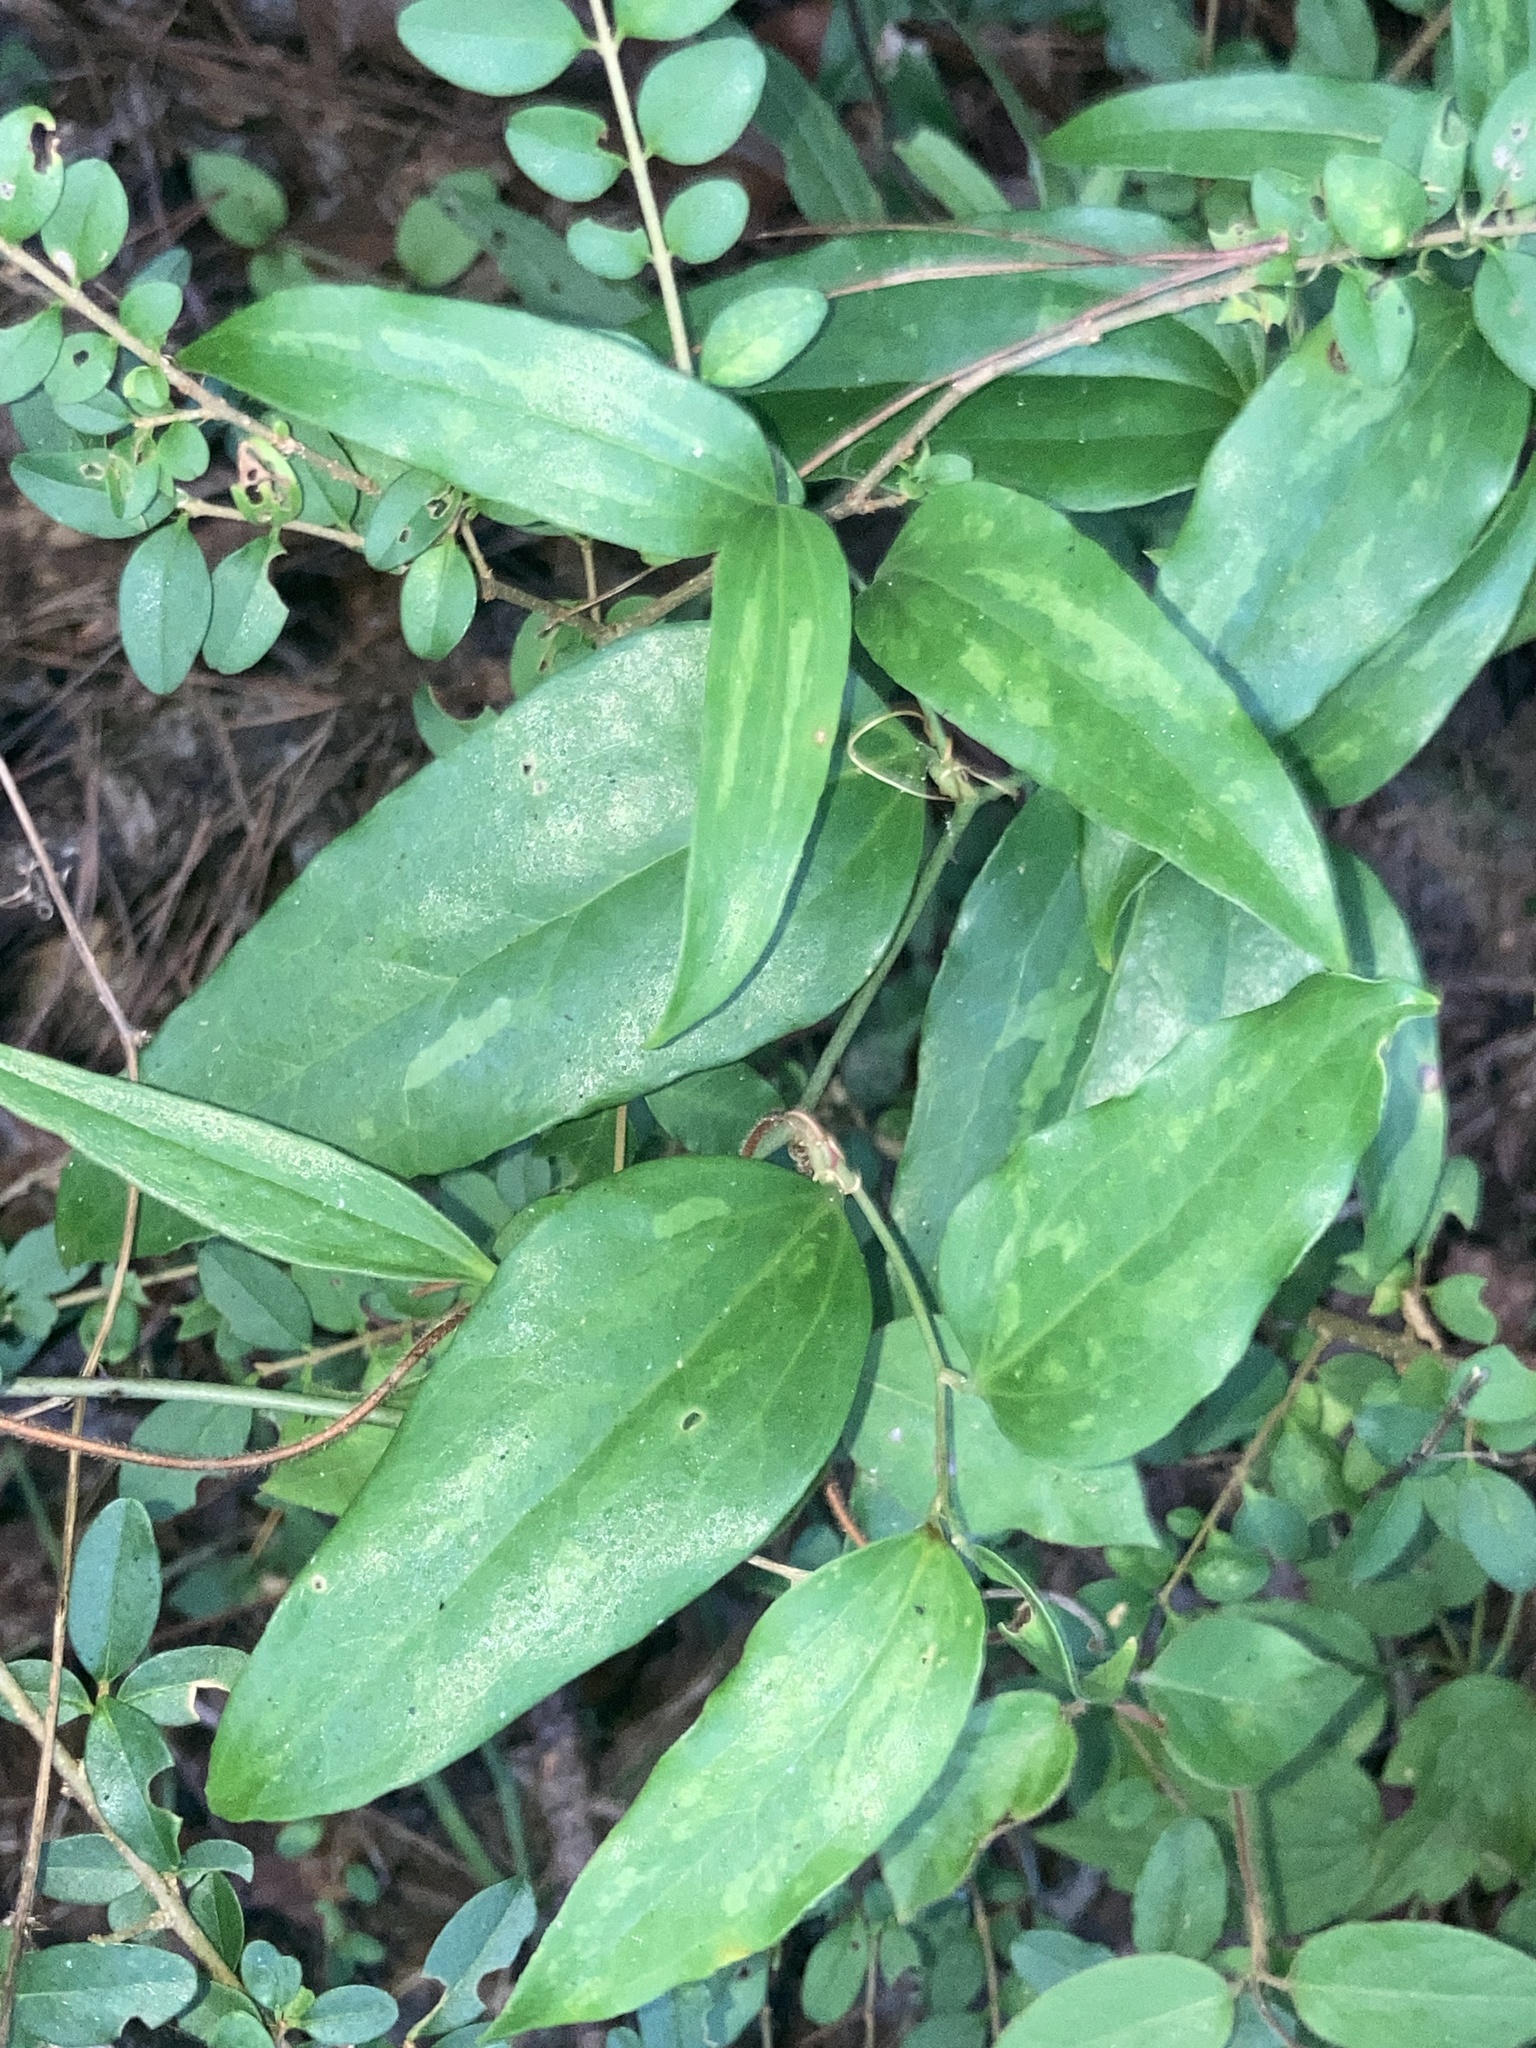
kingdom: Plantae
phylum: Tracheophyta
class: Liliopsida
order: Liliales
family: Smilacaceae
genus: Smilax
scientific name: Smilax maritima
